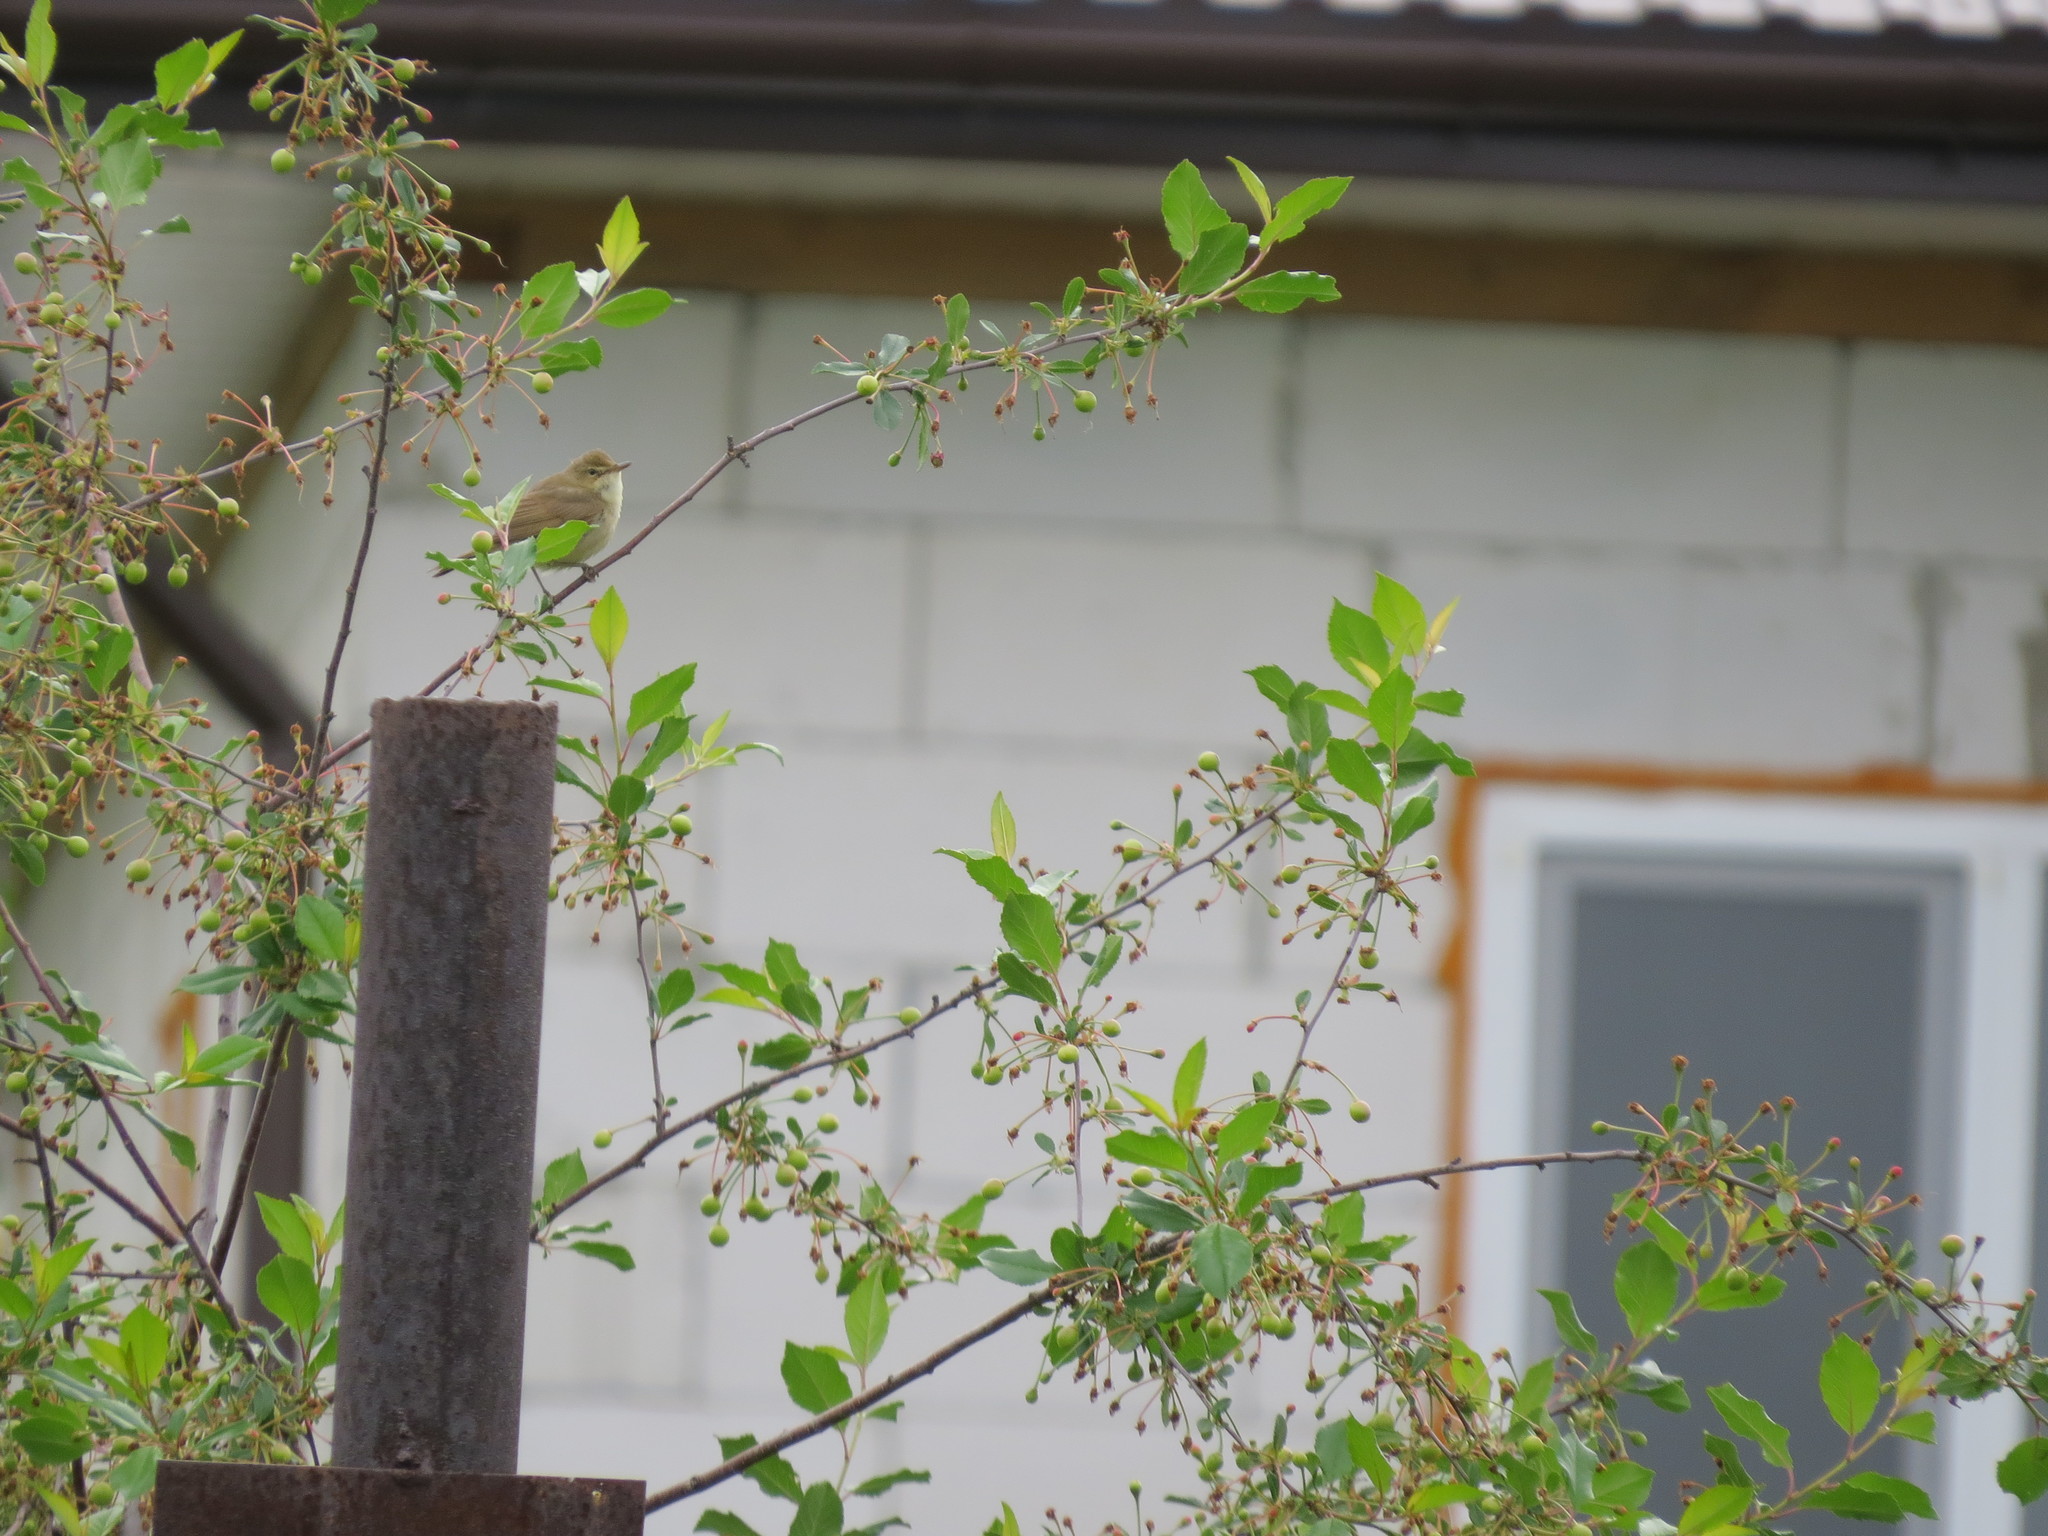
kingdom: Animalia
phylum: Chordata
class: Aves
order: Passeriformes
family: Acrocephalidae
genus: Acrocephalus
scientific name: Acrocephalus dumetorum
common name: Blyth's reed warbler
